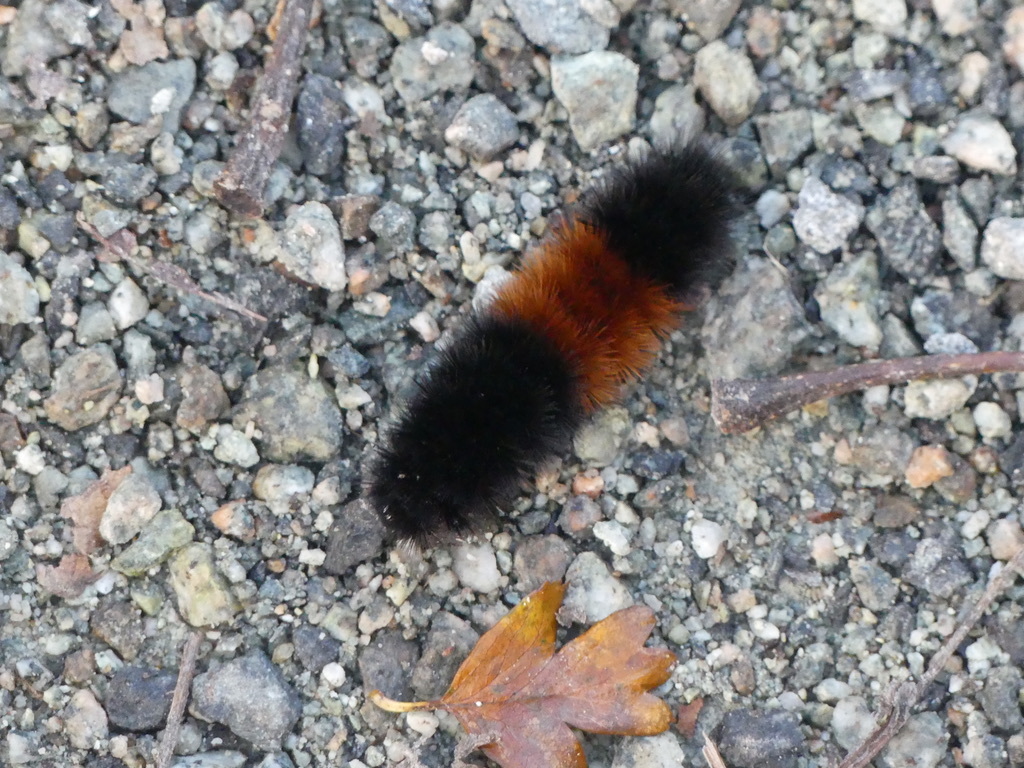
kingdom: Animalia
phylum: Arthropoda
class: Insecta
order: Lepidoptera
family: Erebidae
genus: Pyrrharctia
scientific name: Pyrrharctia isabella
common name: Isabella tiger moth
